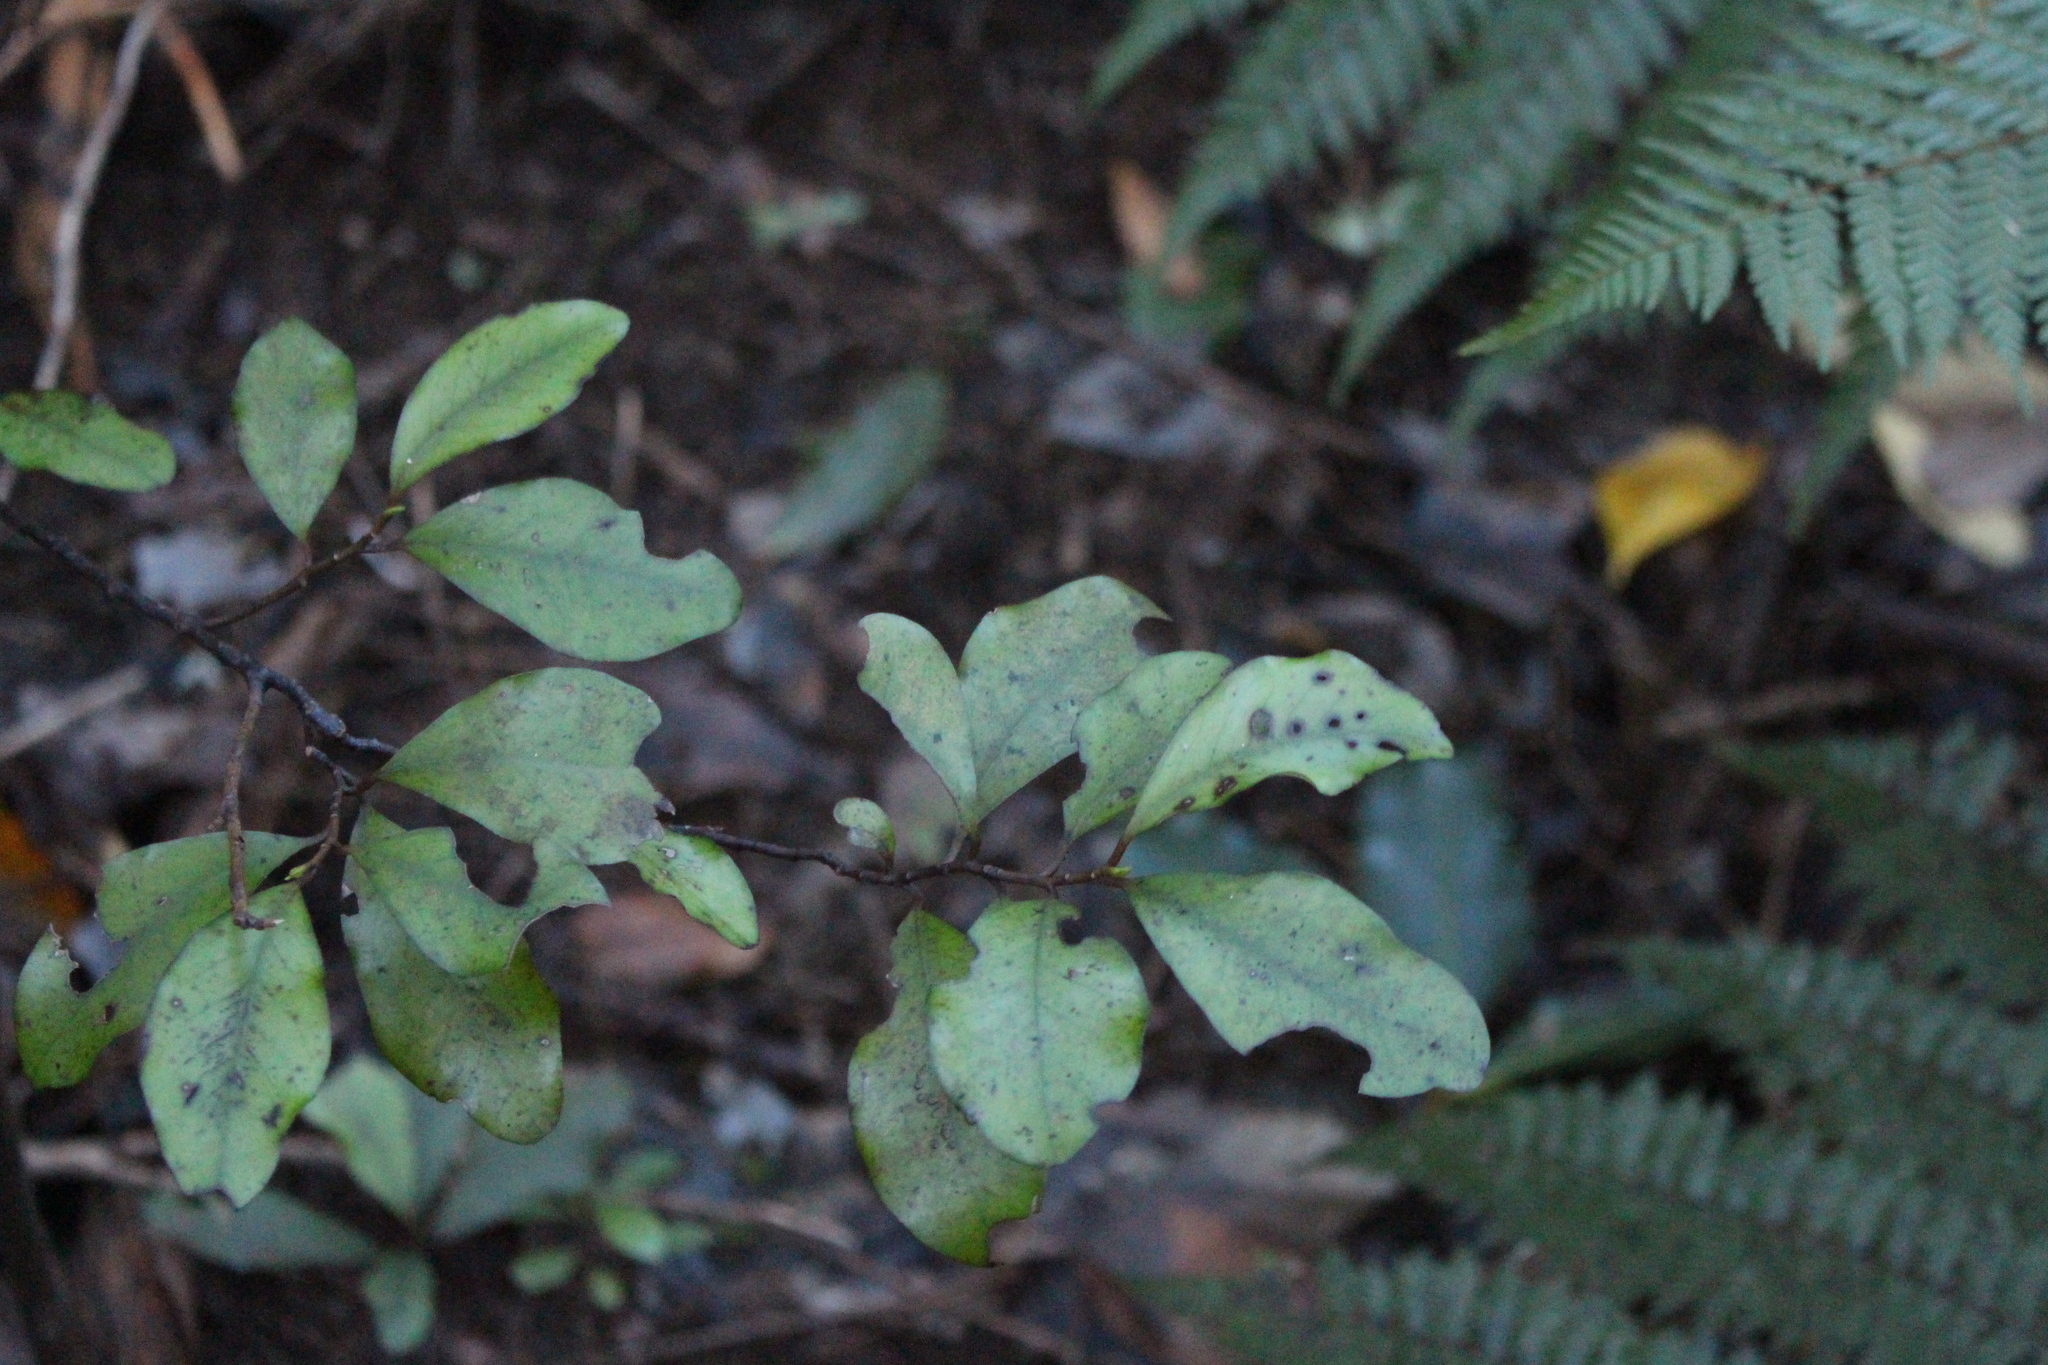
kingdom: Plantae
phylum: Tracheophyta
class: Magnoliopsida
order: Canellales
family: Winteraceae
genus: Pseudowintera
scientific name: Pseudowintera colorata
